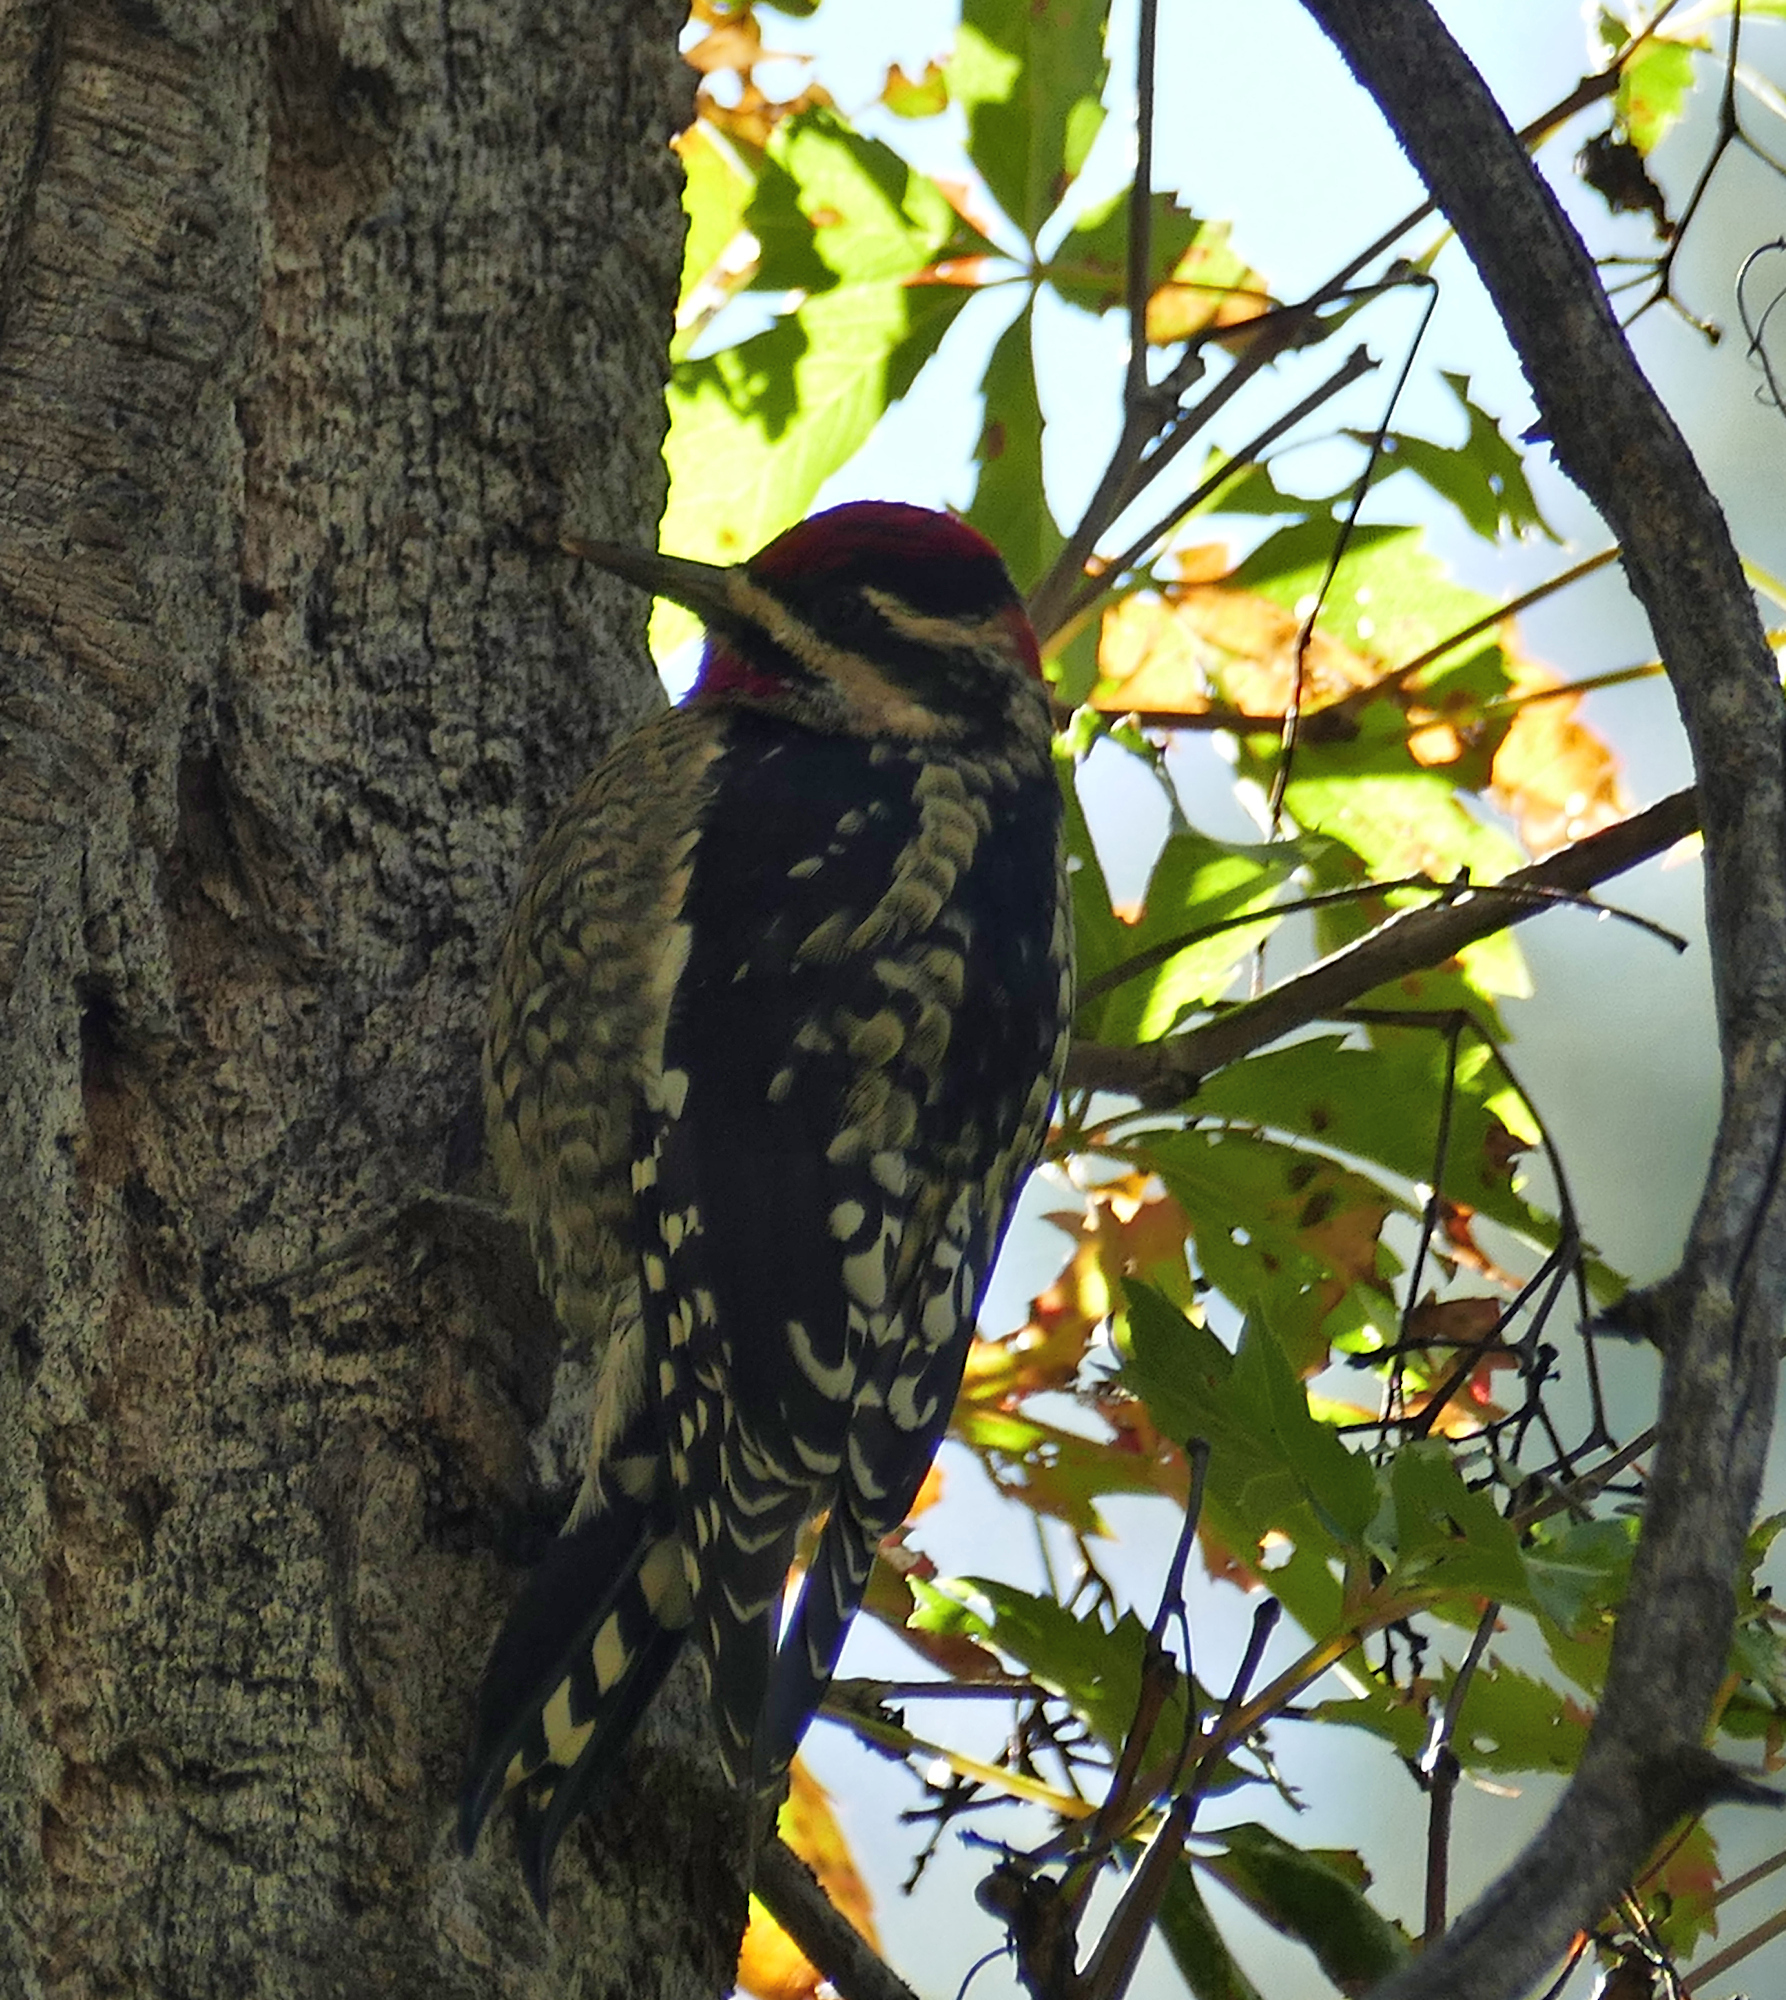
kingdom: Animalia
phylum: Chordata
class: Aves
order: Piciformes
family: Picidae
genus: Sphyrapicus
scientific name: Sphyrapicus nuchalis
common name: Red-naped sapsucker
